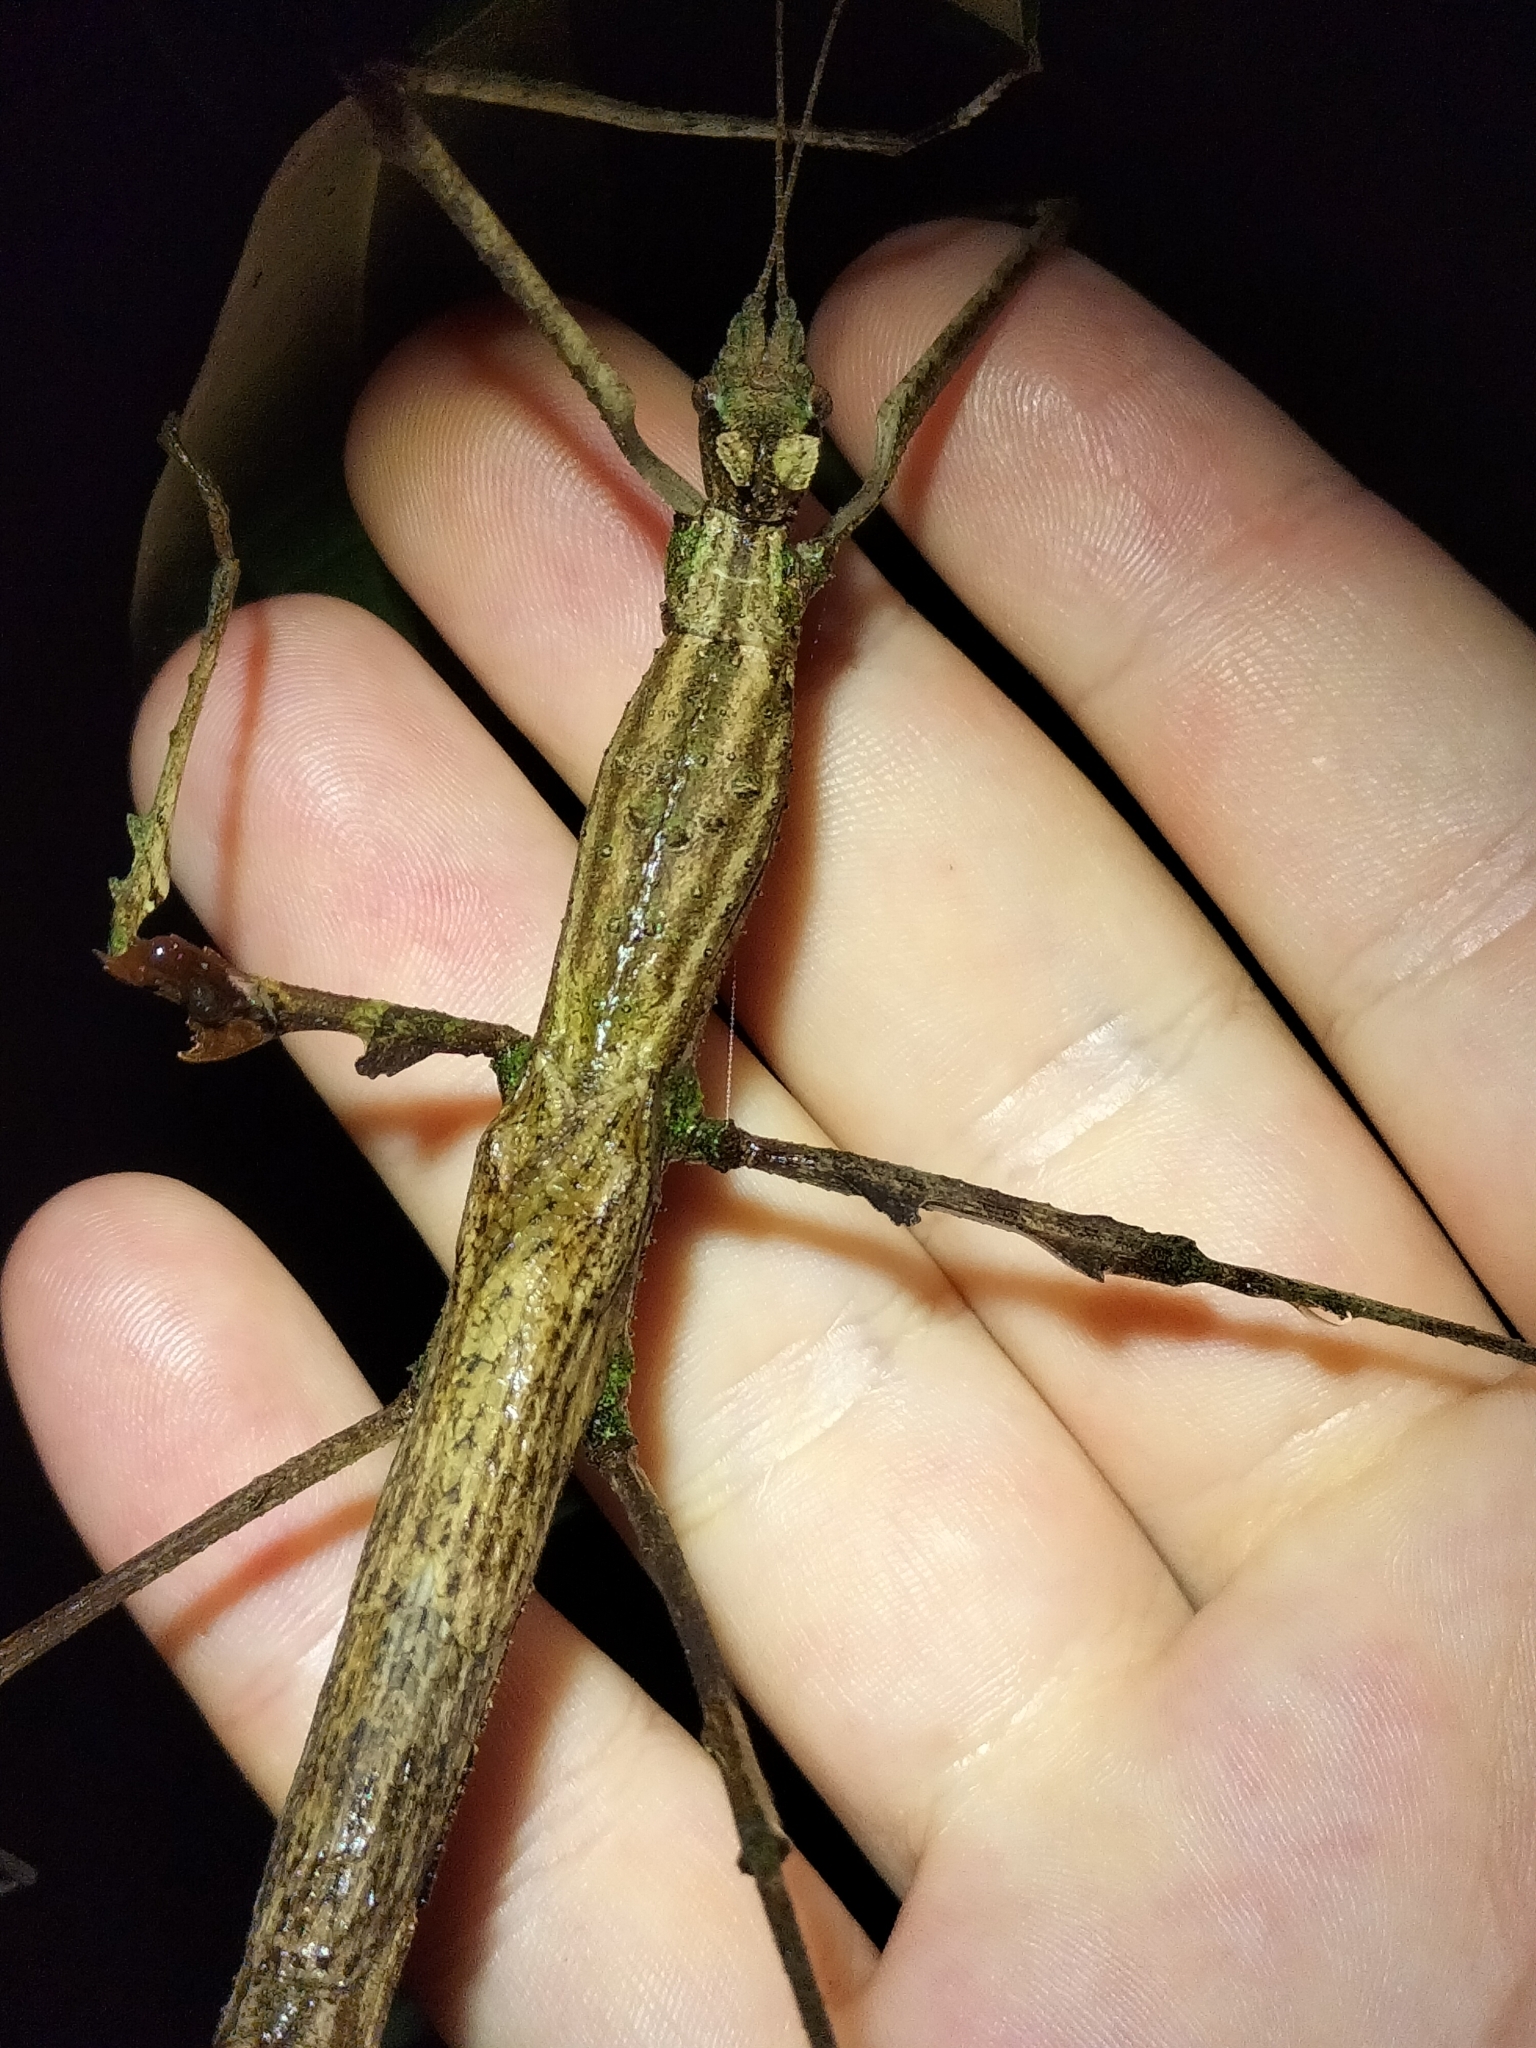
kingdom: Animalia
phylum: Arthropoda
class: Insecta
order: Phasmida
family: Phasmatidae
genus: Onchestus
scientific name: Onchestus rentzi
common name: Rentz's stick-insect
